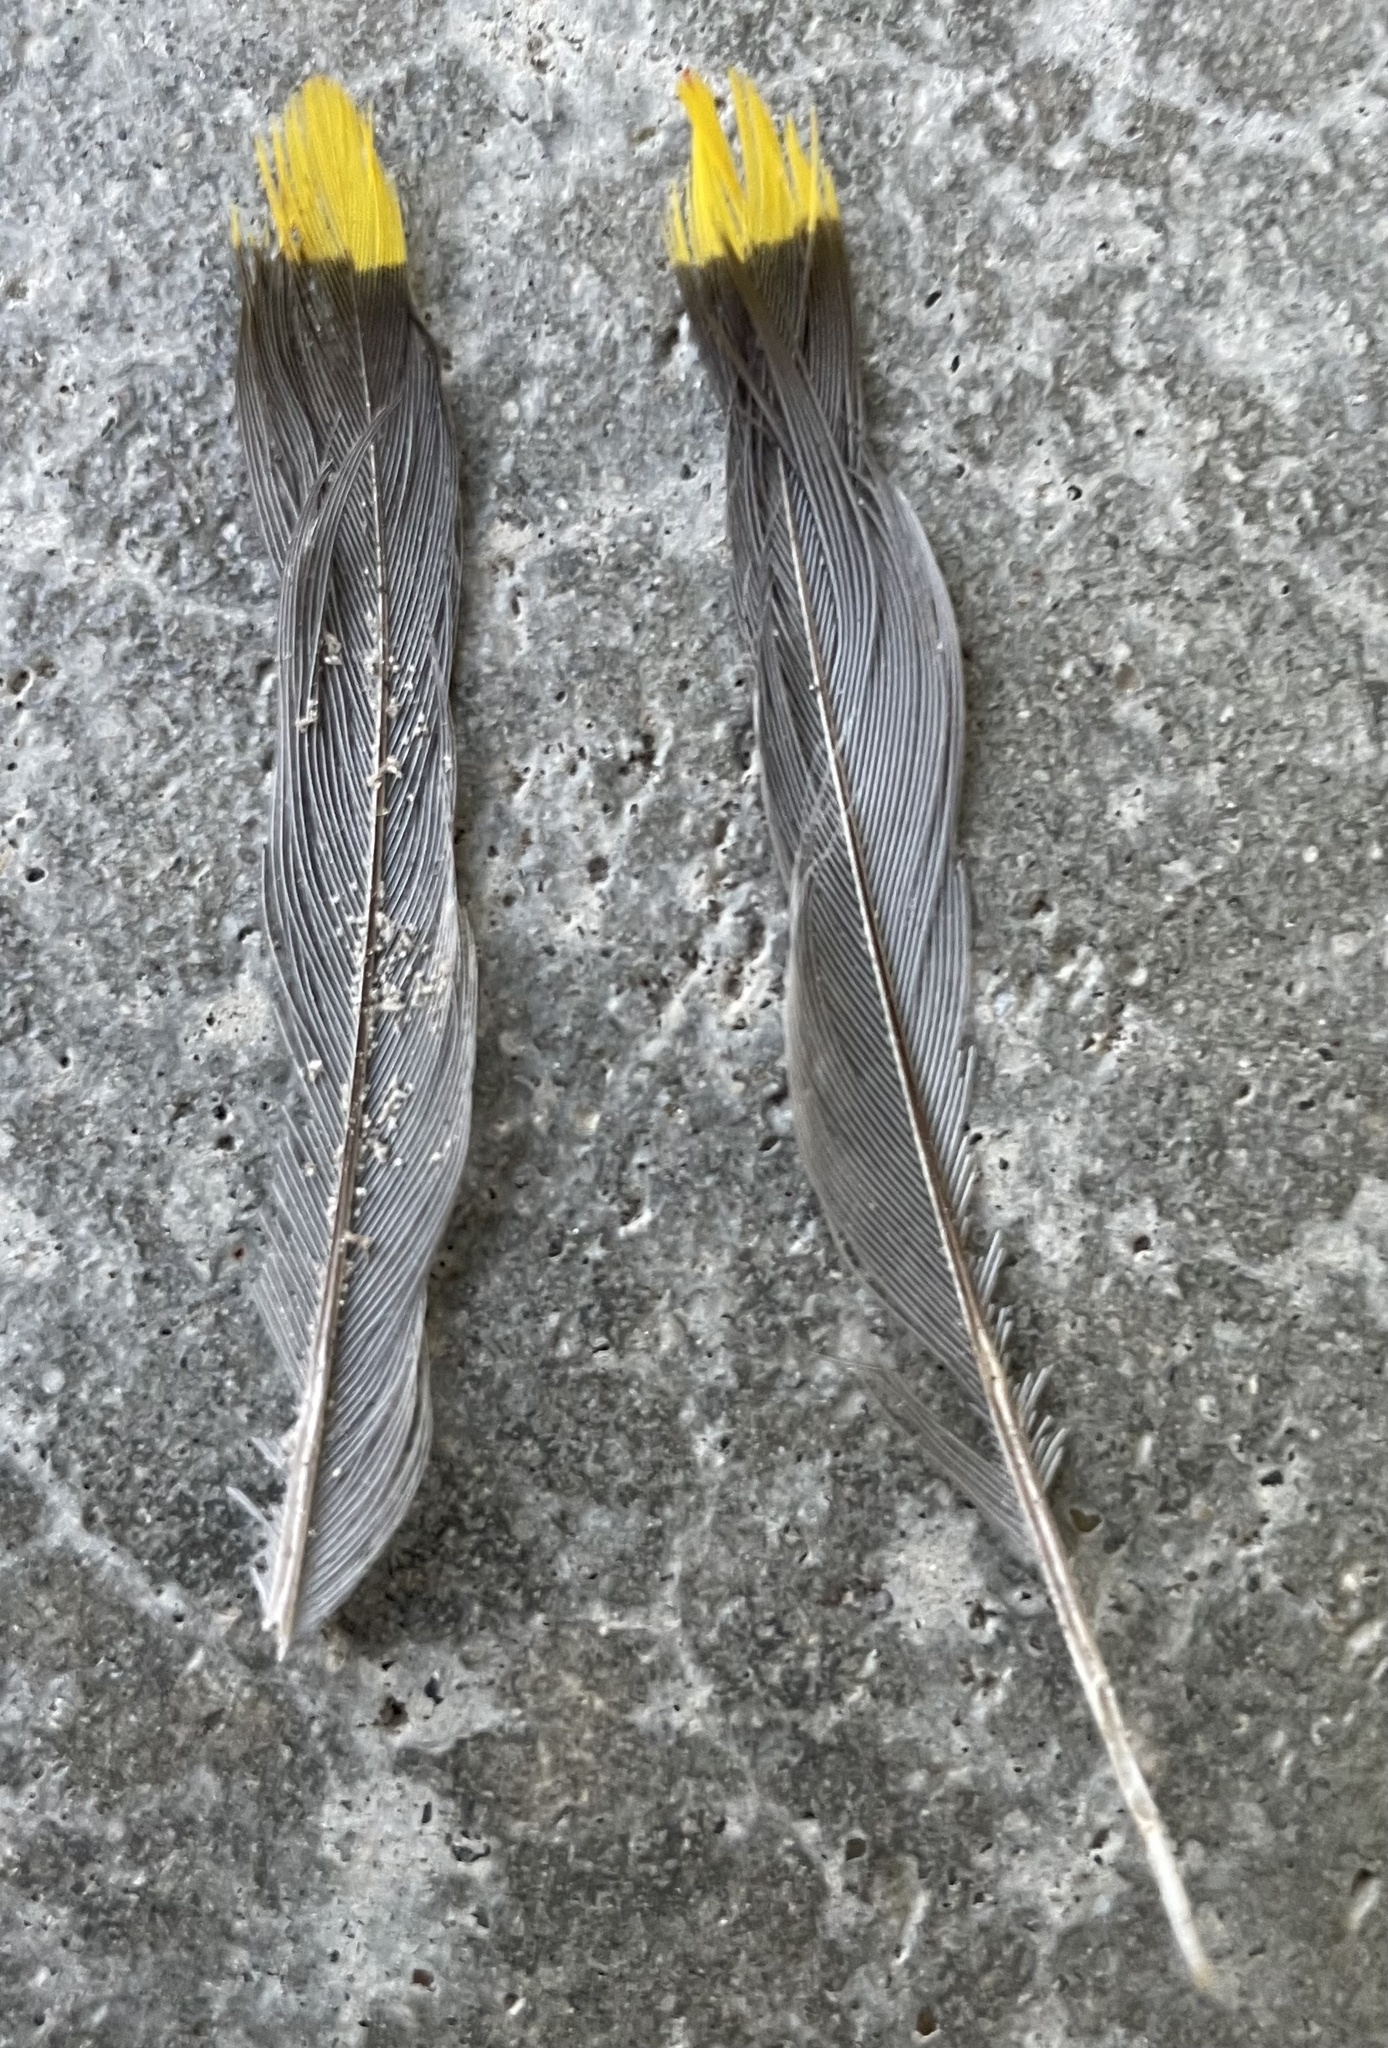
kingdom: Animalia
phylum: Chordata
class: Aves
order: Passeriformes
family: Bombycillidae
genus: Bombycilla
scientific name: Bombycilla cedrorum
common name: Cedar waxwing
